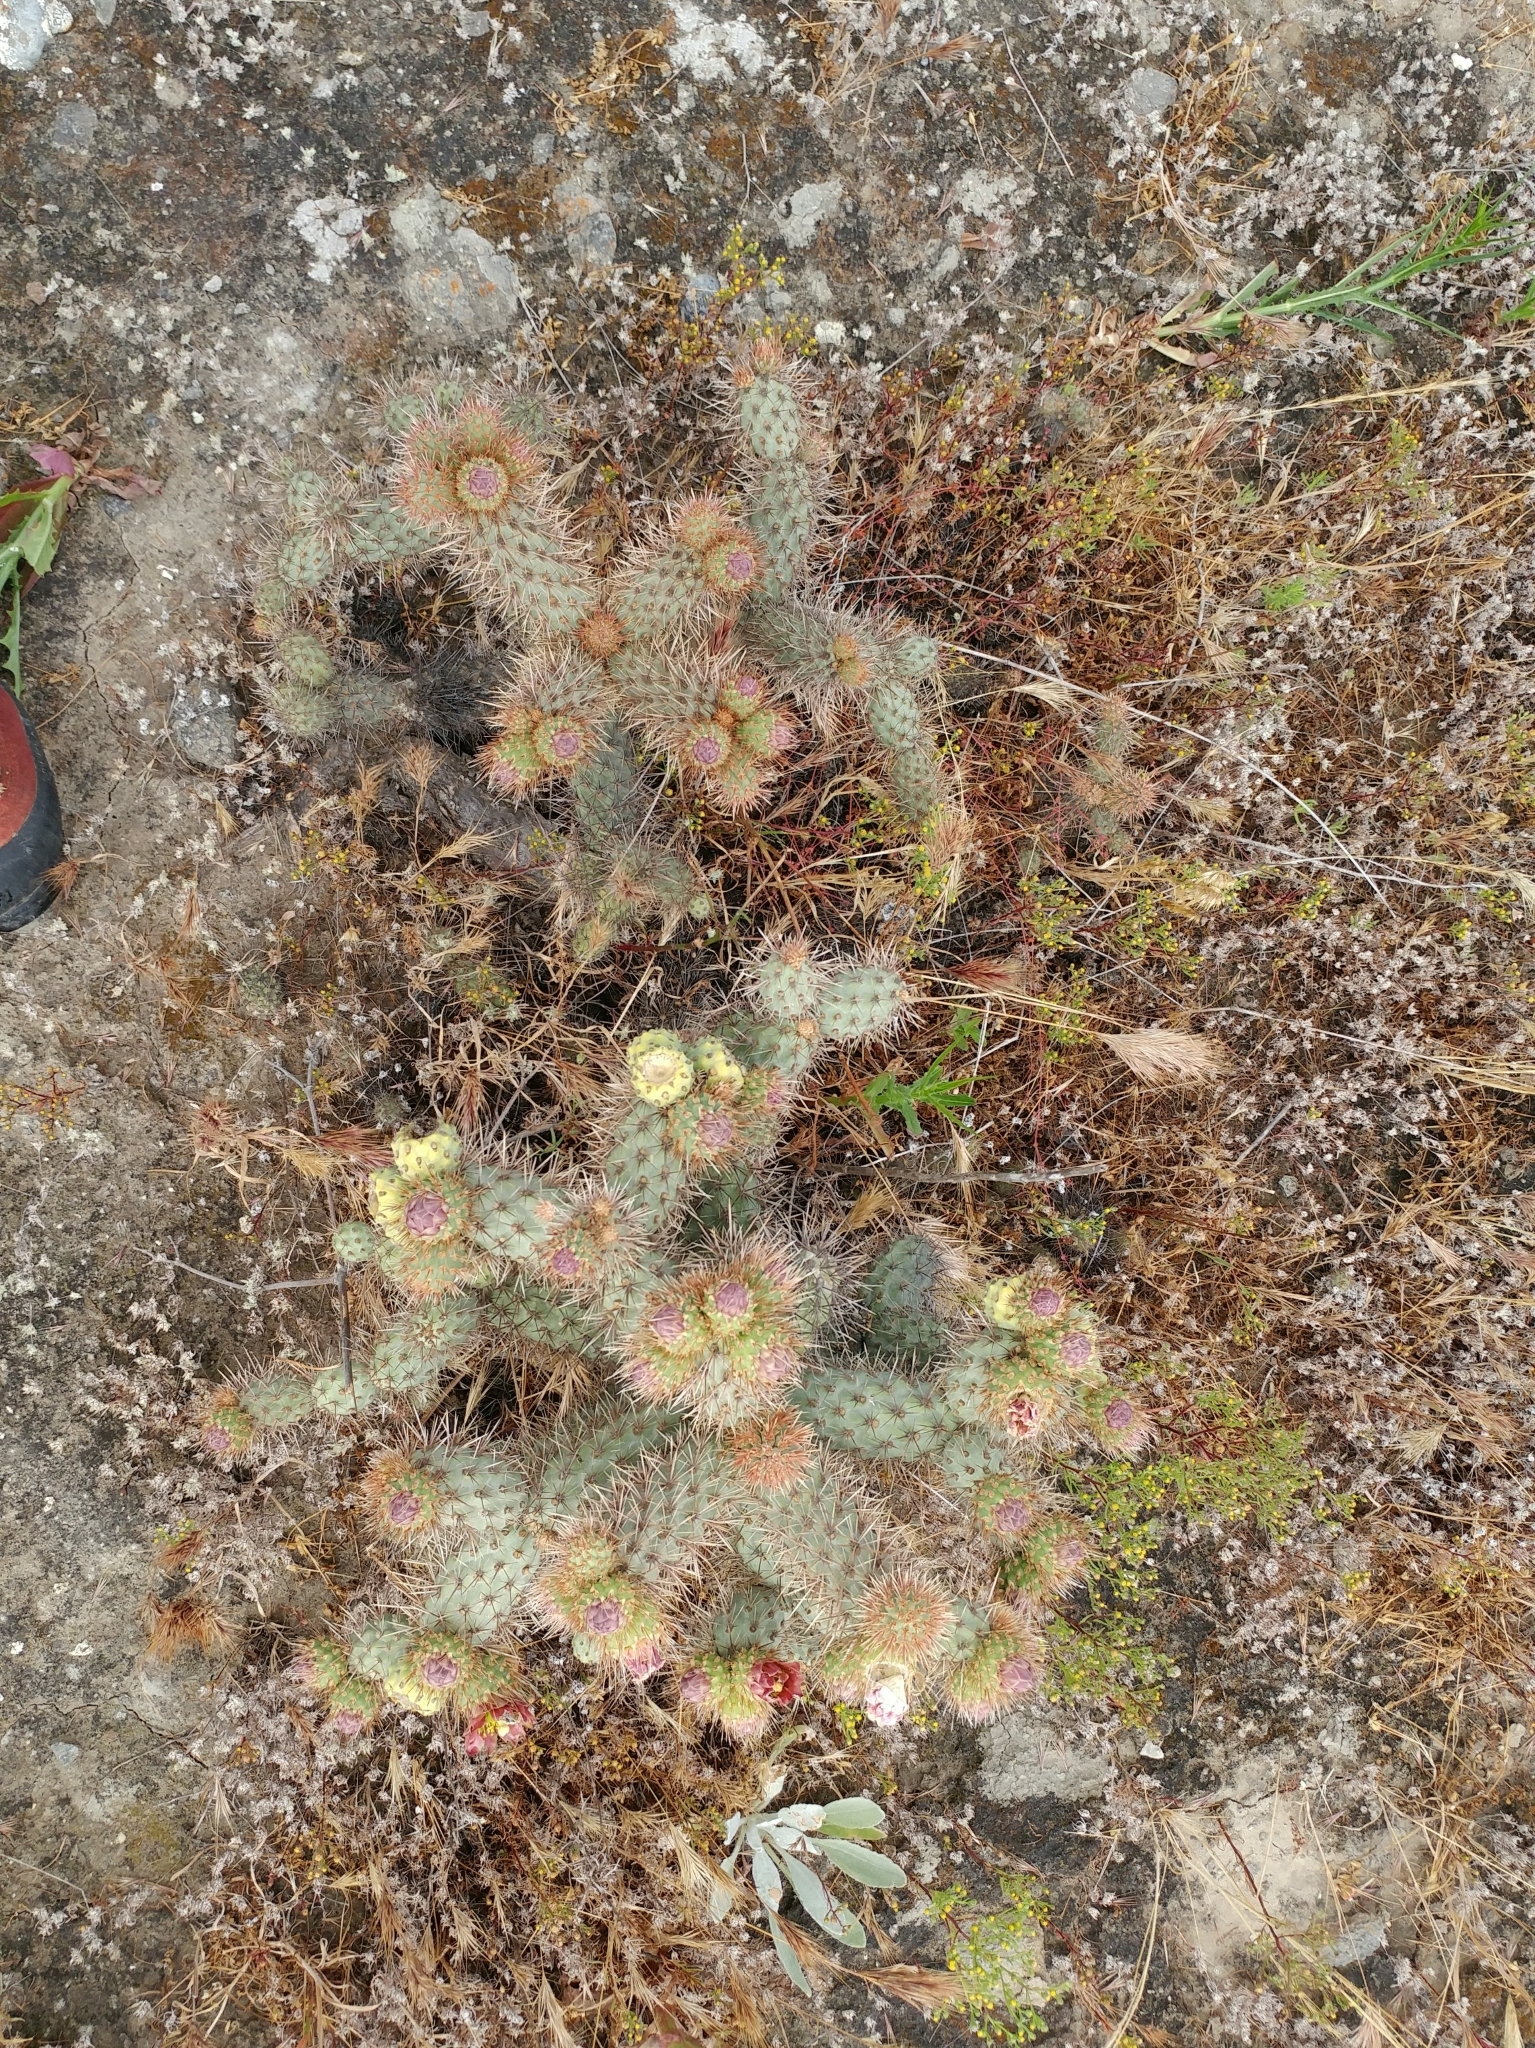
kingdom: Plantae
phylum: Tracheophyta
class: Magnoliopsida
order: Caryophyllales
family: Cactaceae
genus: Cylindropuntia
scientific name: Cylindropuntia prolifera
